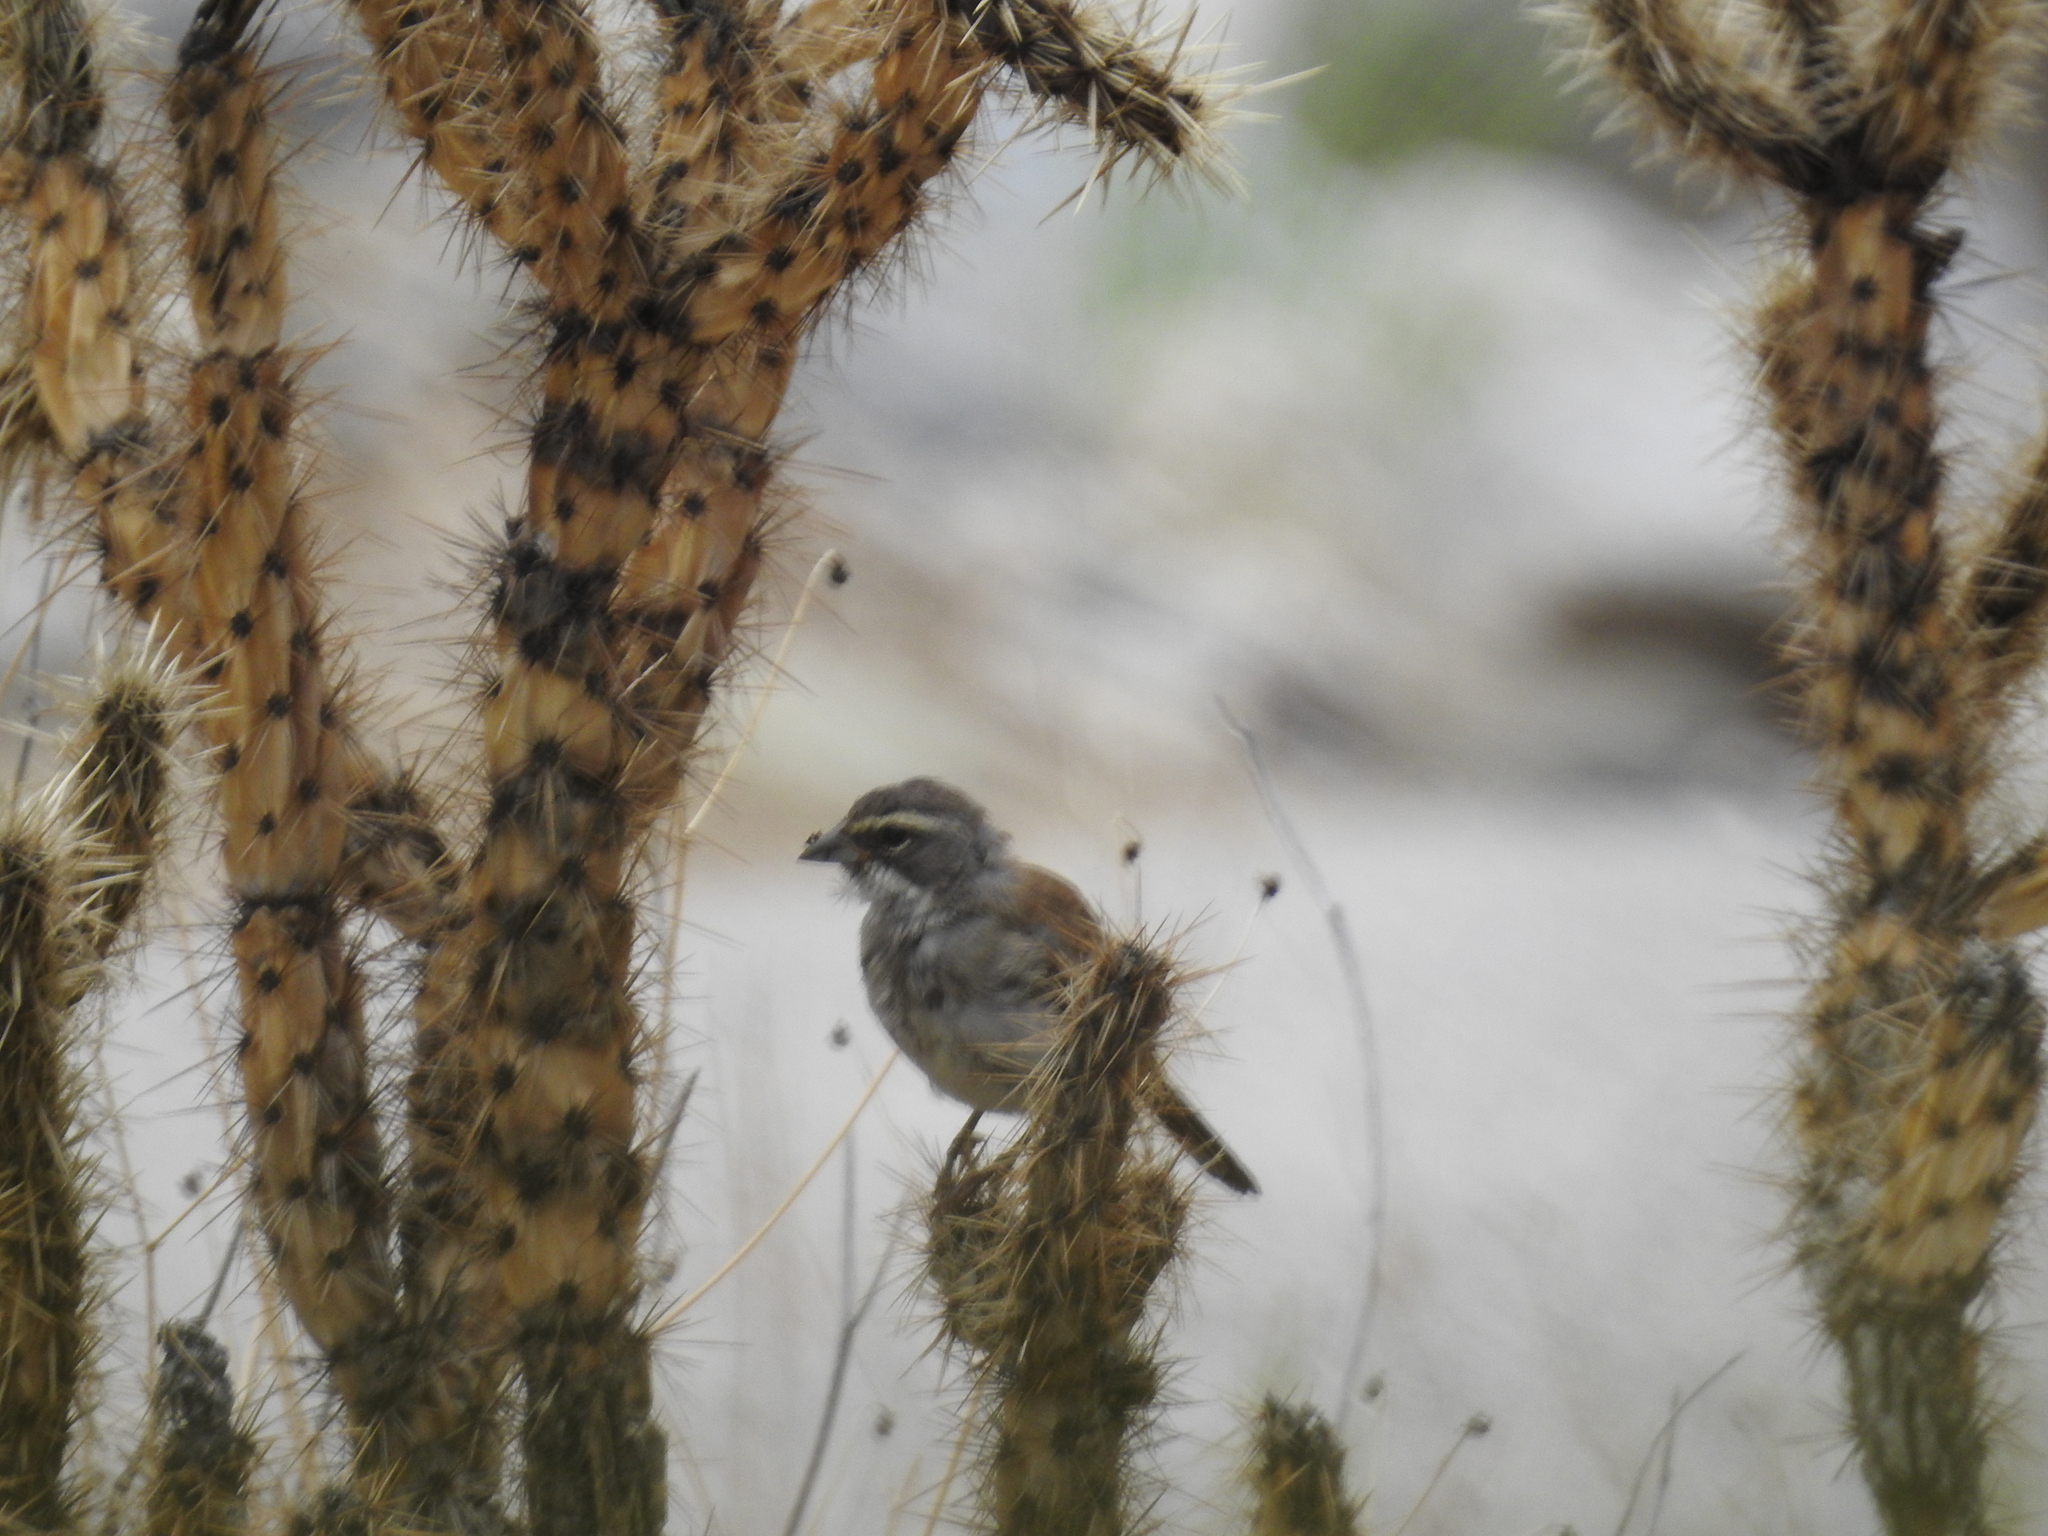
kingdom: Animalia
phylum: Chordata
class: Aves
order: Passeriformes
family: Passerellidae
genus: Amphispiza
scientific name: Amphispiza bilineata
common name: Black-throated sparrow
